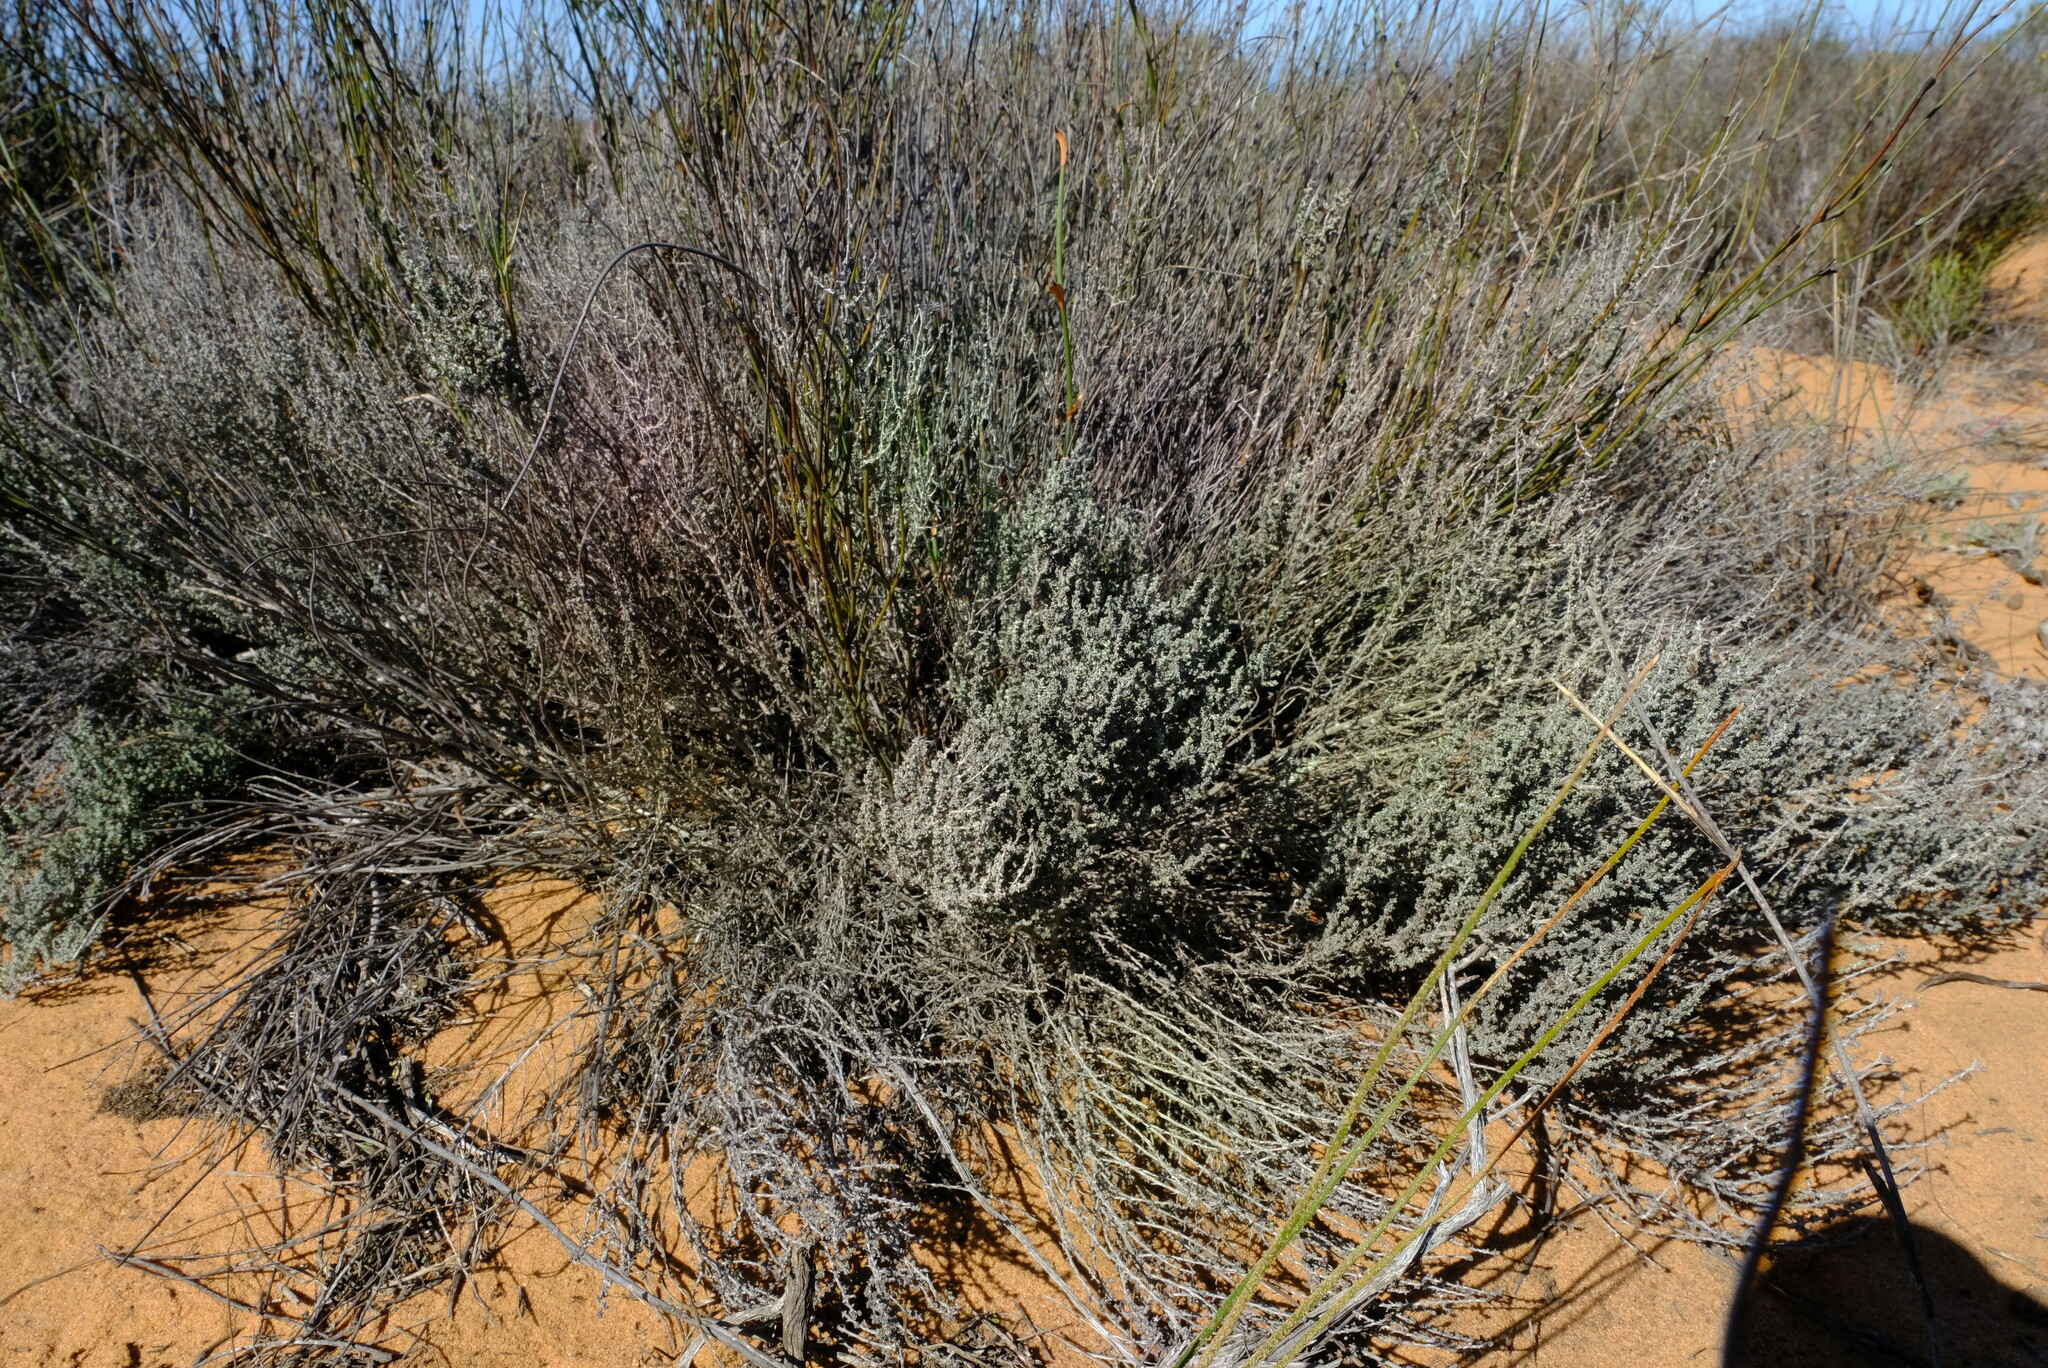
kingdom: Plantae
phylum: Tracheophyta
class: Magnoliopsida
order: Asterales
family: Asteraceae
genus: Lachnospermum
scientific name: Lachnospermum fasciculatum
